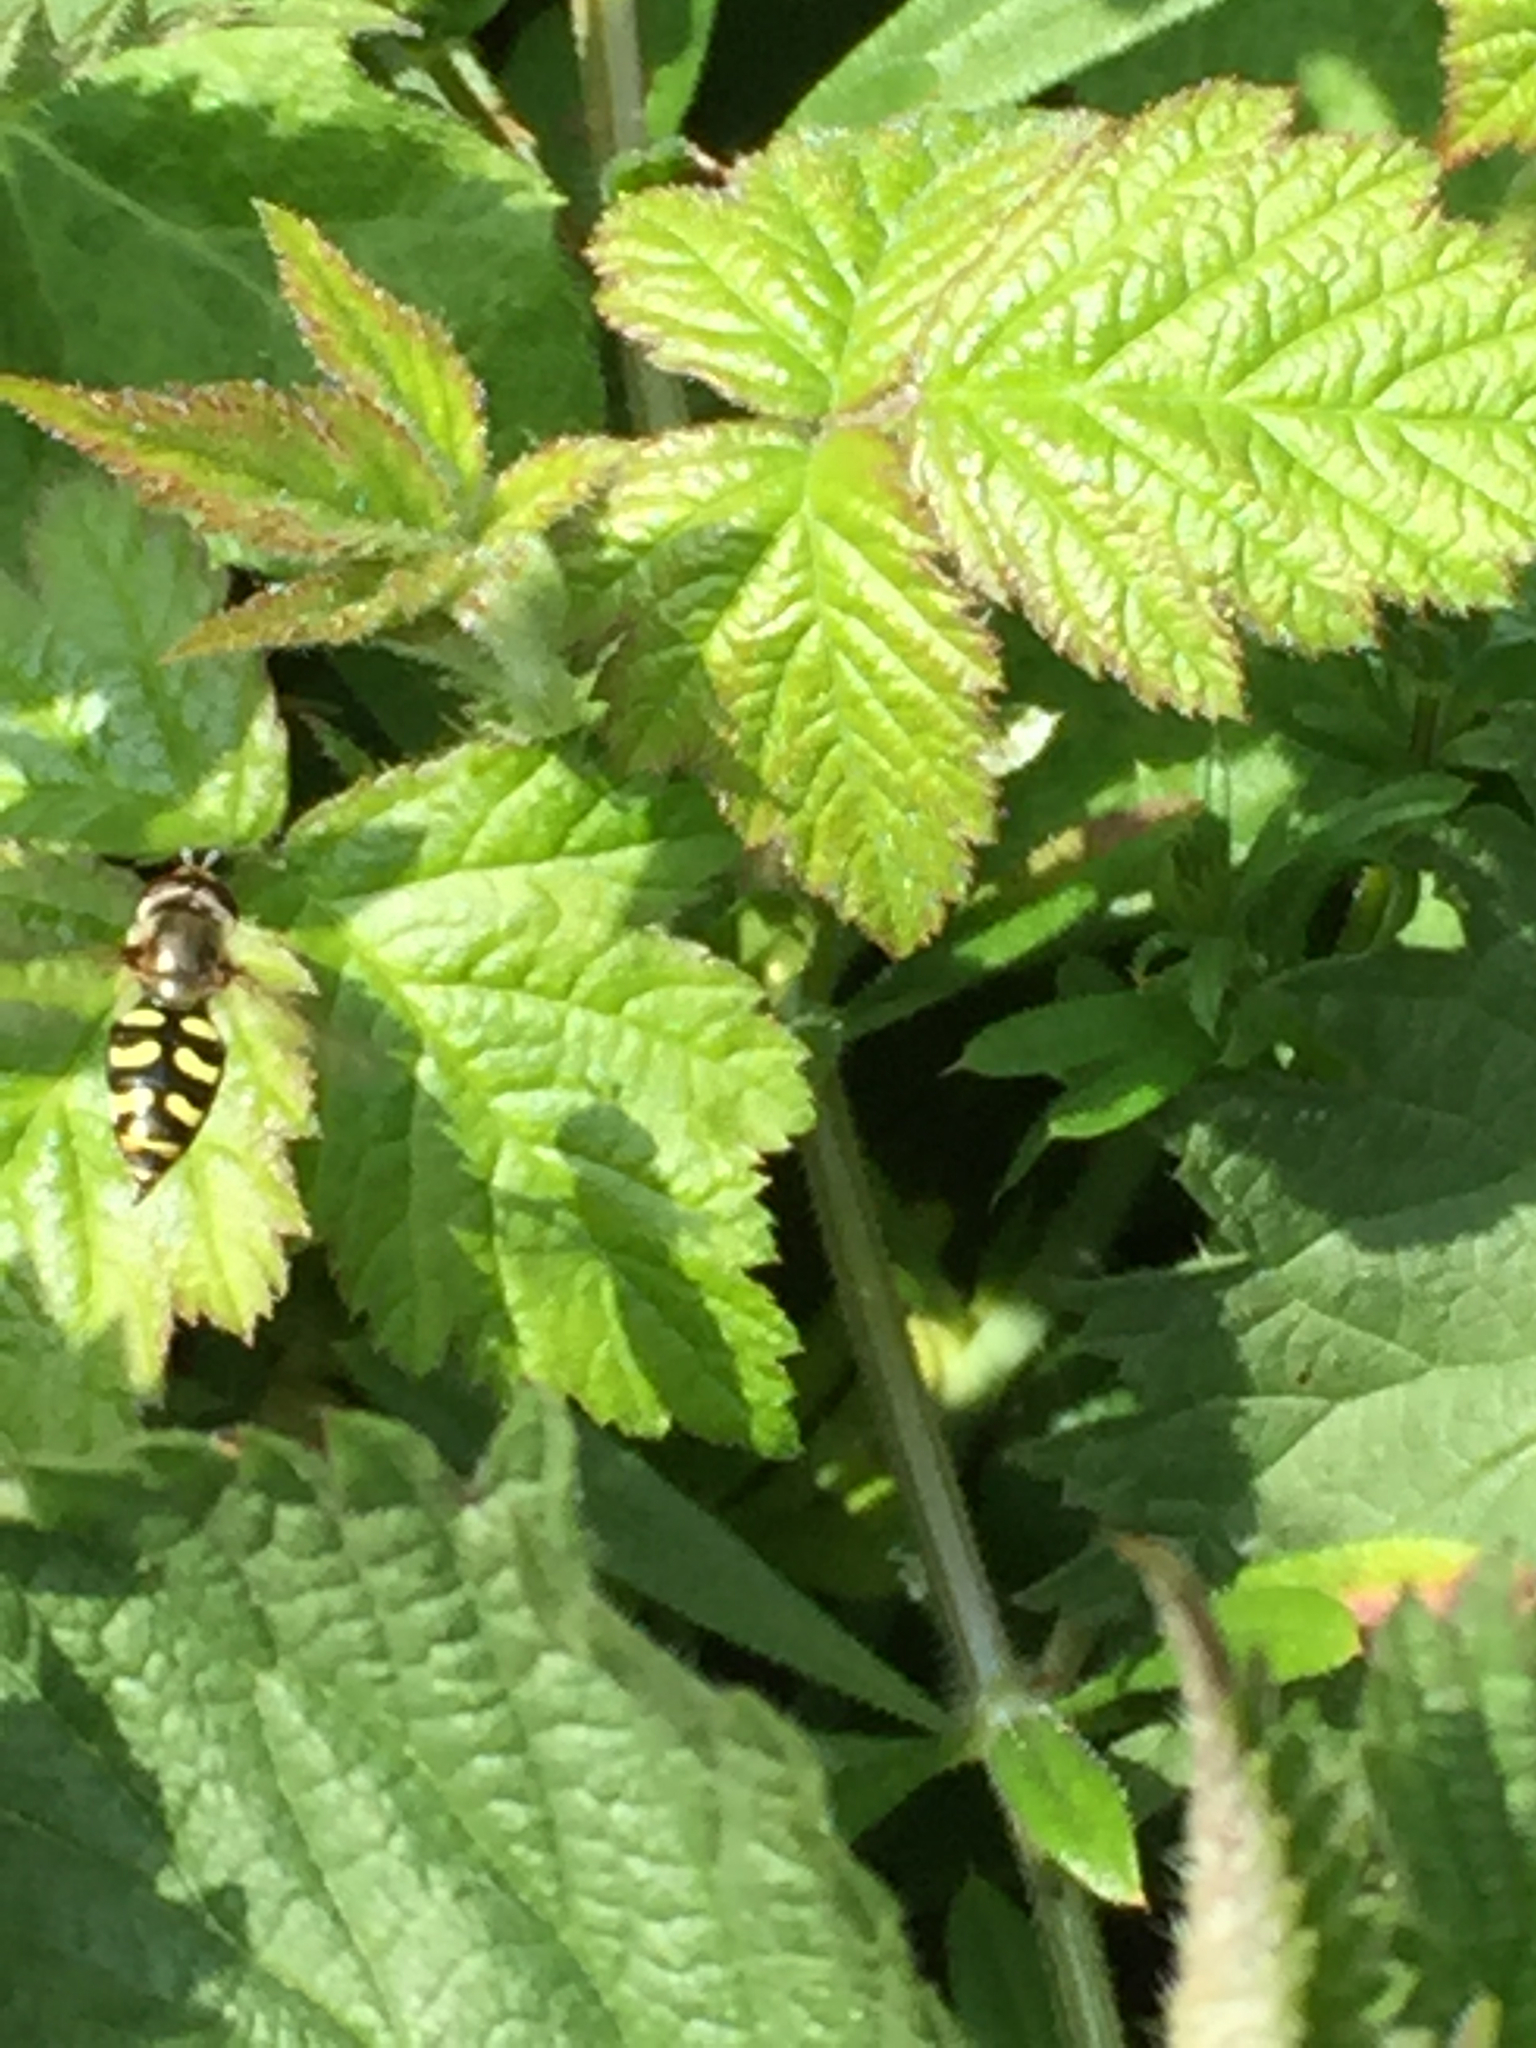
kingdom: Animalia
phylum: Arthropoda
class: Insecta
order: Diptera
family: Syrphidae
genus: Eupeodes
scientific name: Eupeodes
